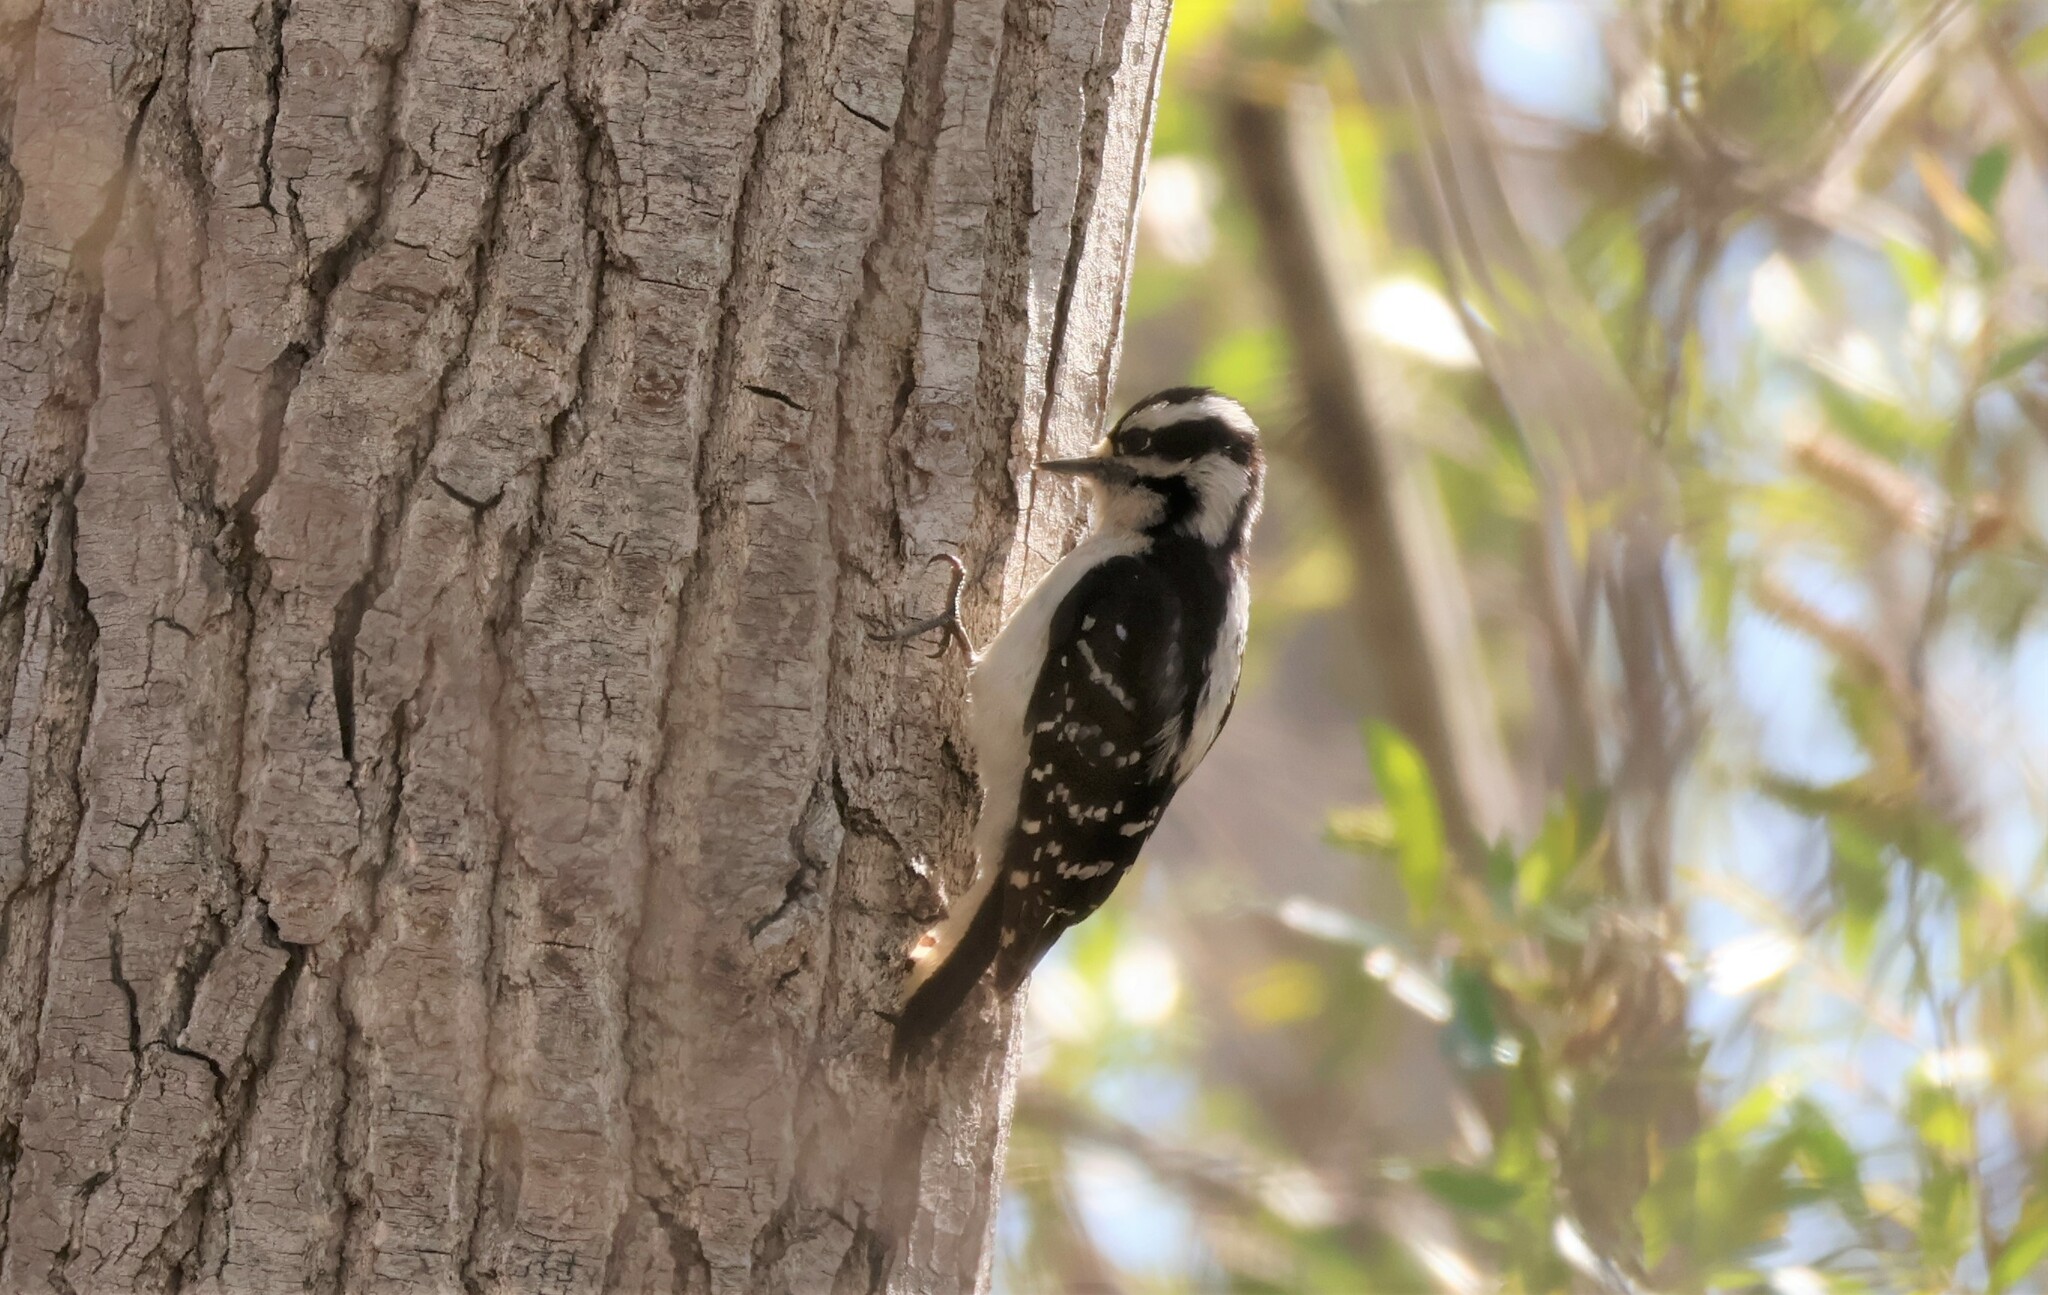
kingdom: Animalia
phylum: Chordata
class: Aves
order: Piciformes
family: Picidae
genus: Dryobates
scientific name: Dryobates pubescens
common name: Downy woodpecker
